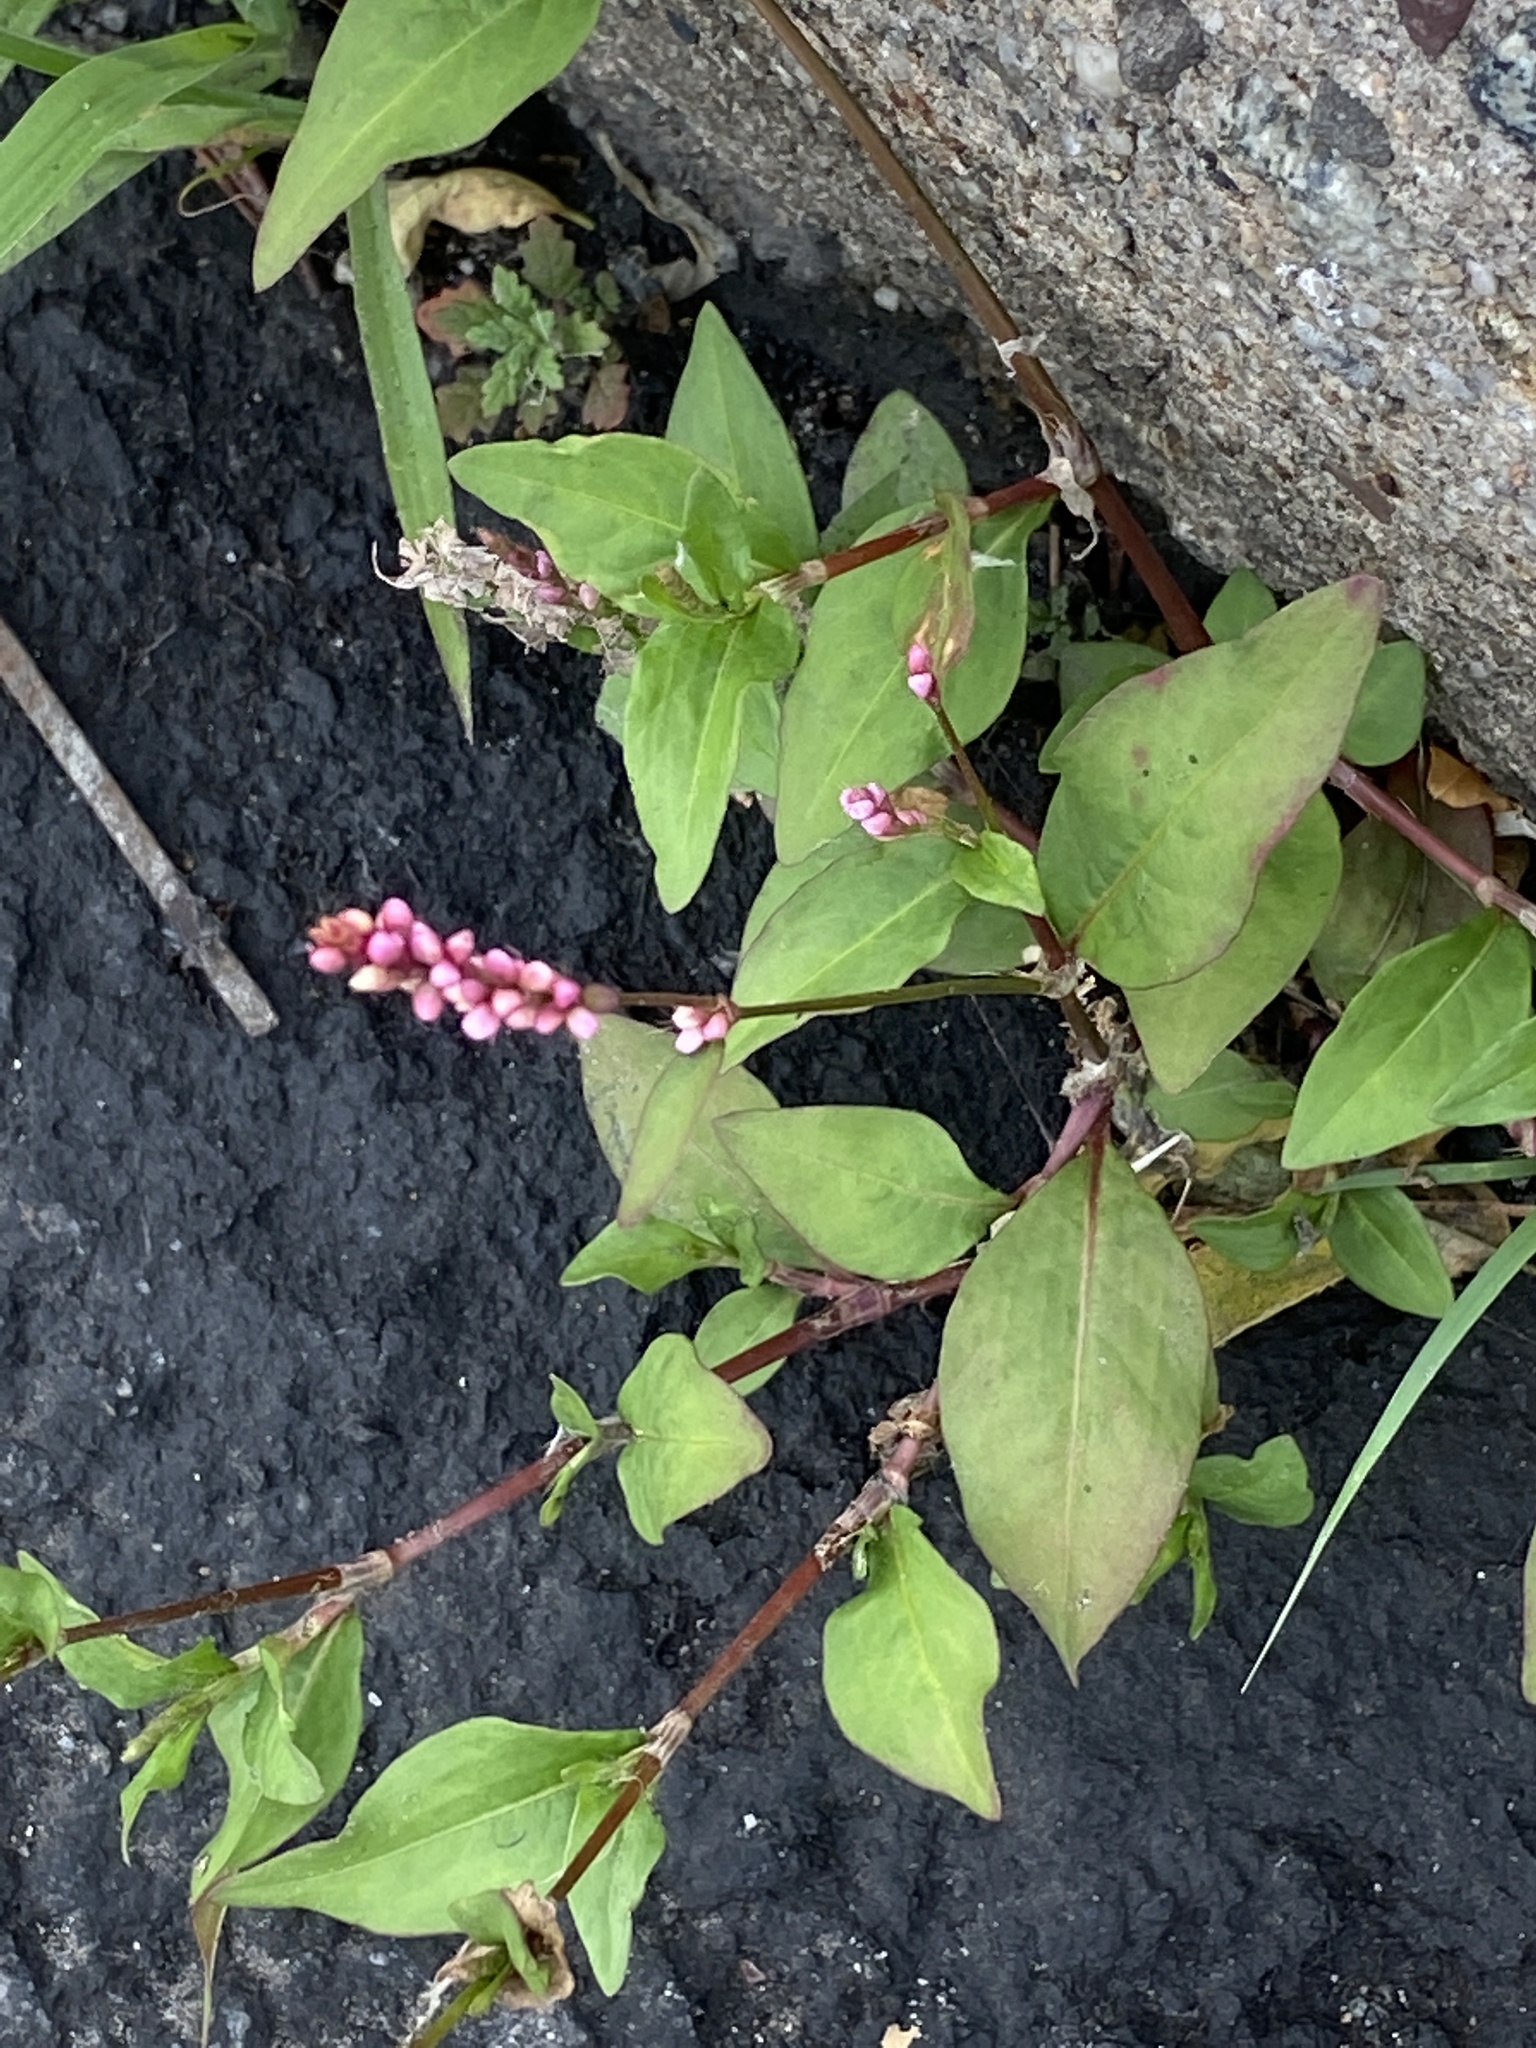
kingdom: Plantae
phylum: Tracheophyta
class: Magnoliopsida
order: Caryophyllales
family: Polygonaceae
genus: Persicaria
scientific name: Persicaria longiseta
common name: Bristly lady's-thumb
